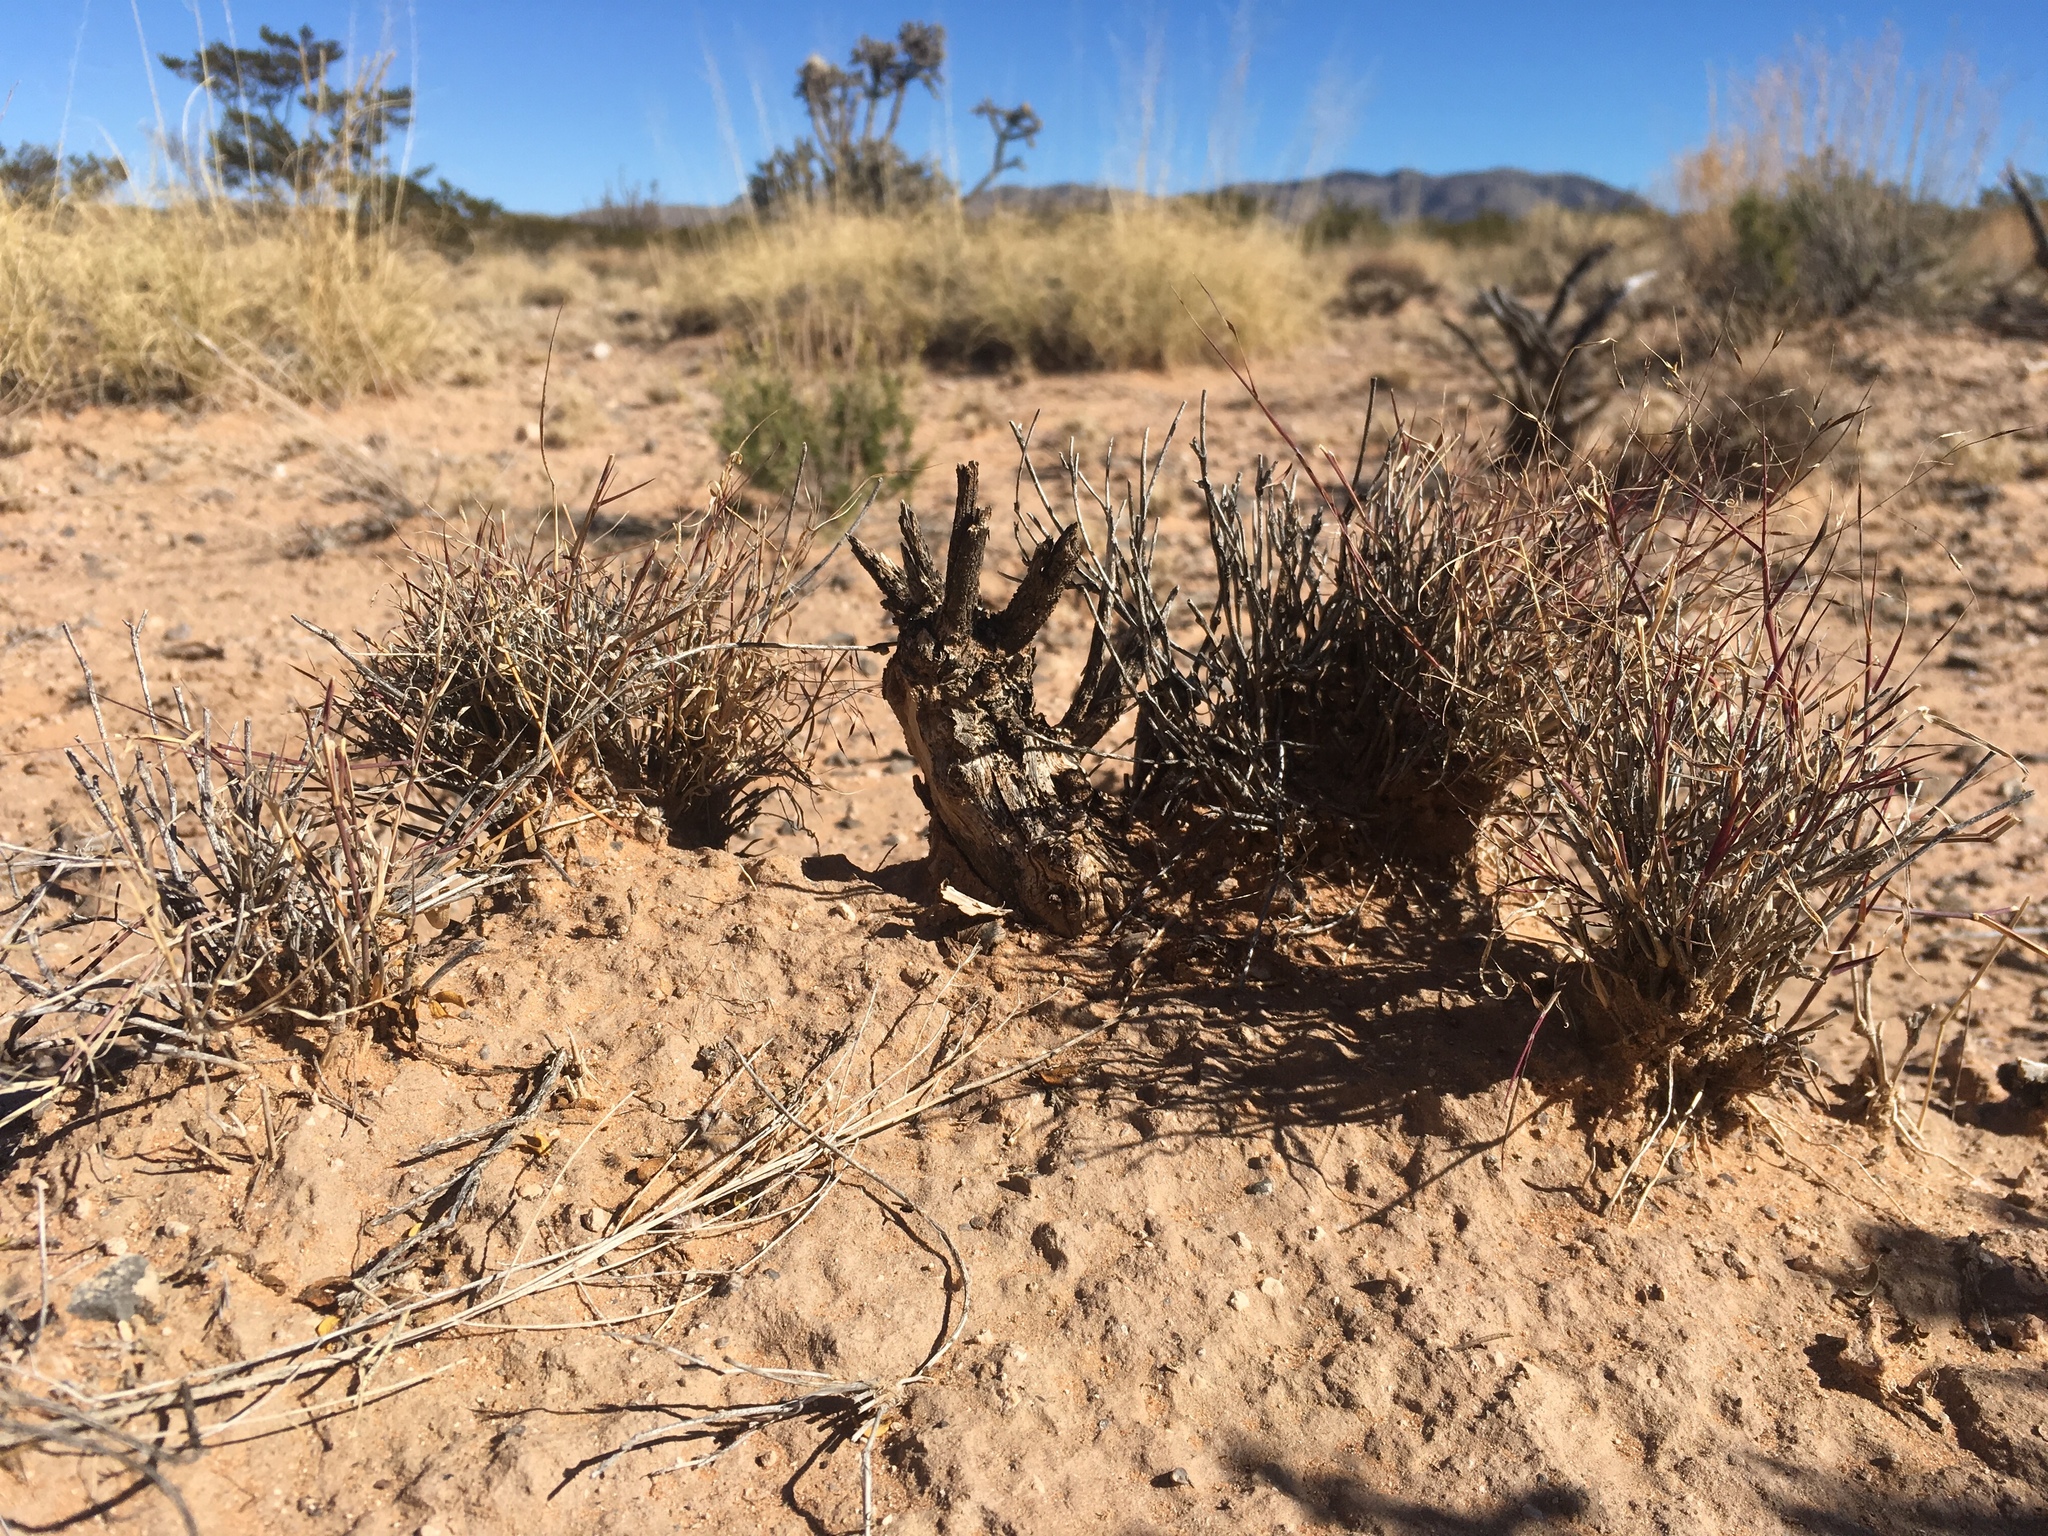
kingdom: Plantae
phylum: Tracheophyta
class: Liliopsida
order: Poales
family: Poaceae
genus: Muhlenbergia
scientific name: Muhlenbergia porteri
